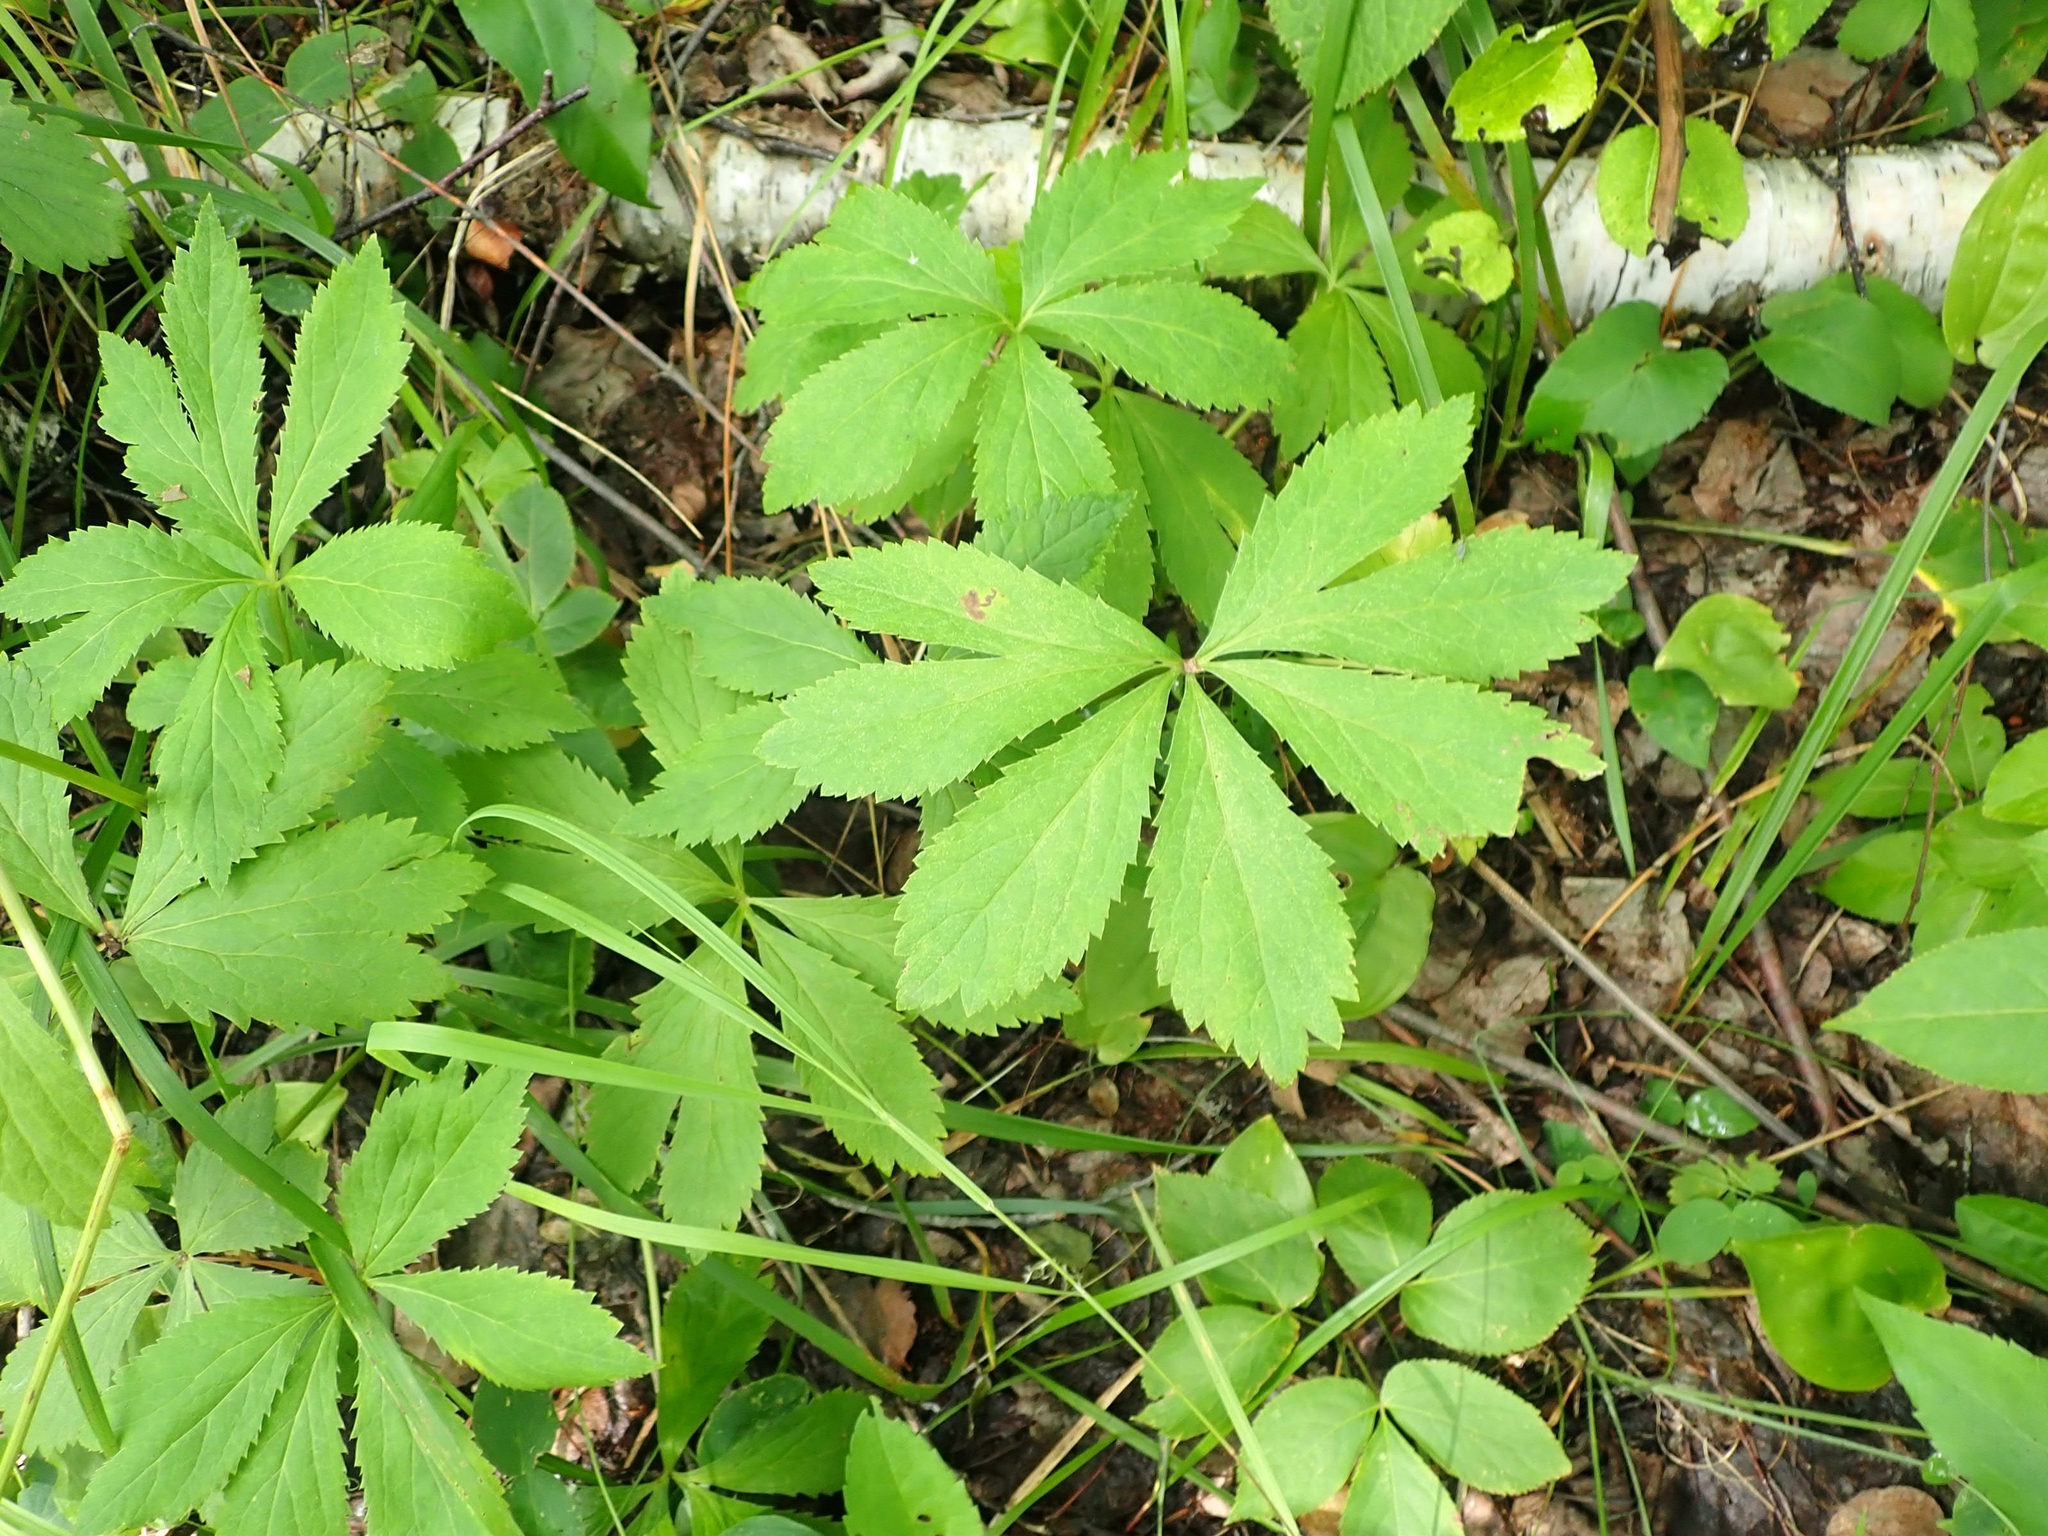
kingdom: Plantae
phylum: Tracheophyta
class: Magnoliopsida
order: Apiales
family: Apiaceae
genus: Sanicula
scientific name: Sanicula marilandica
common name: Black snakeroot
